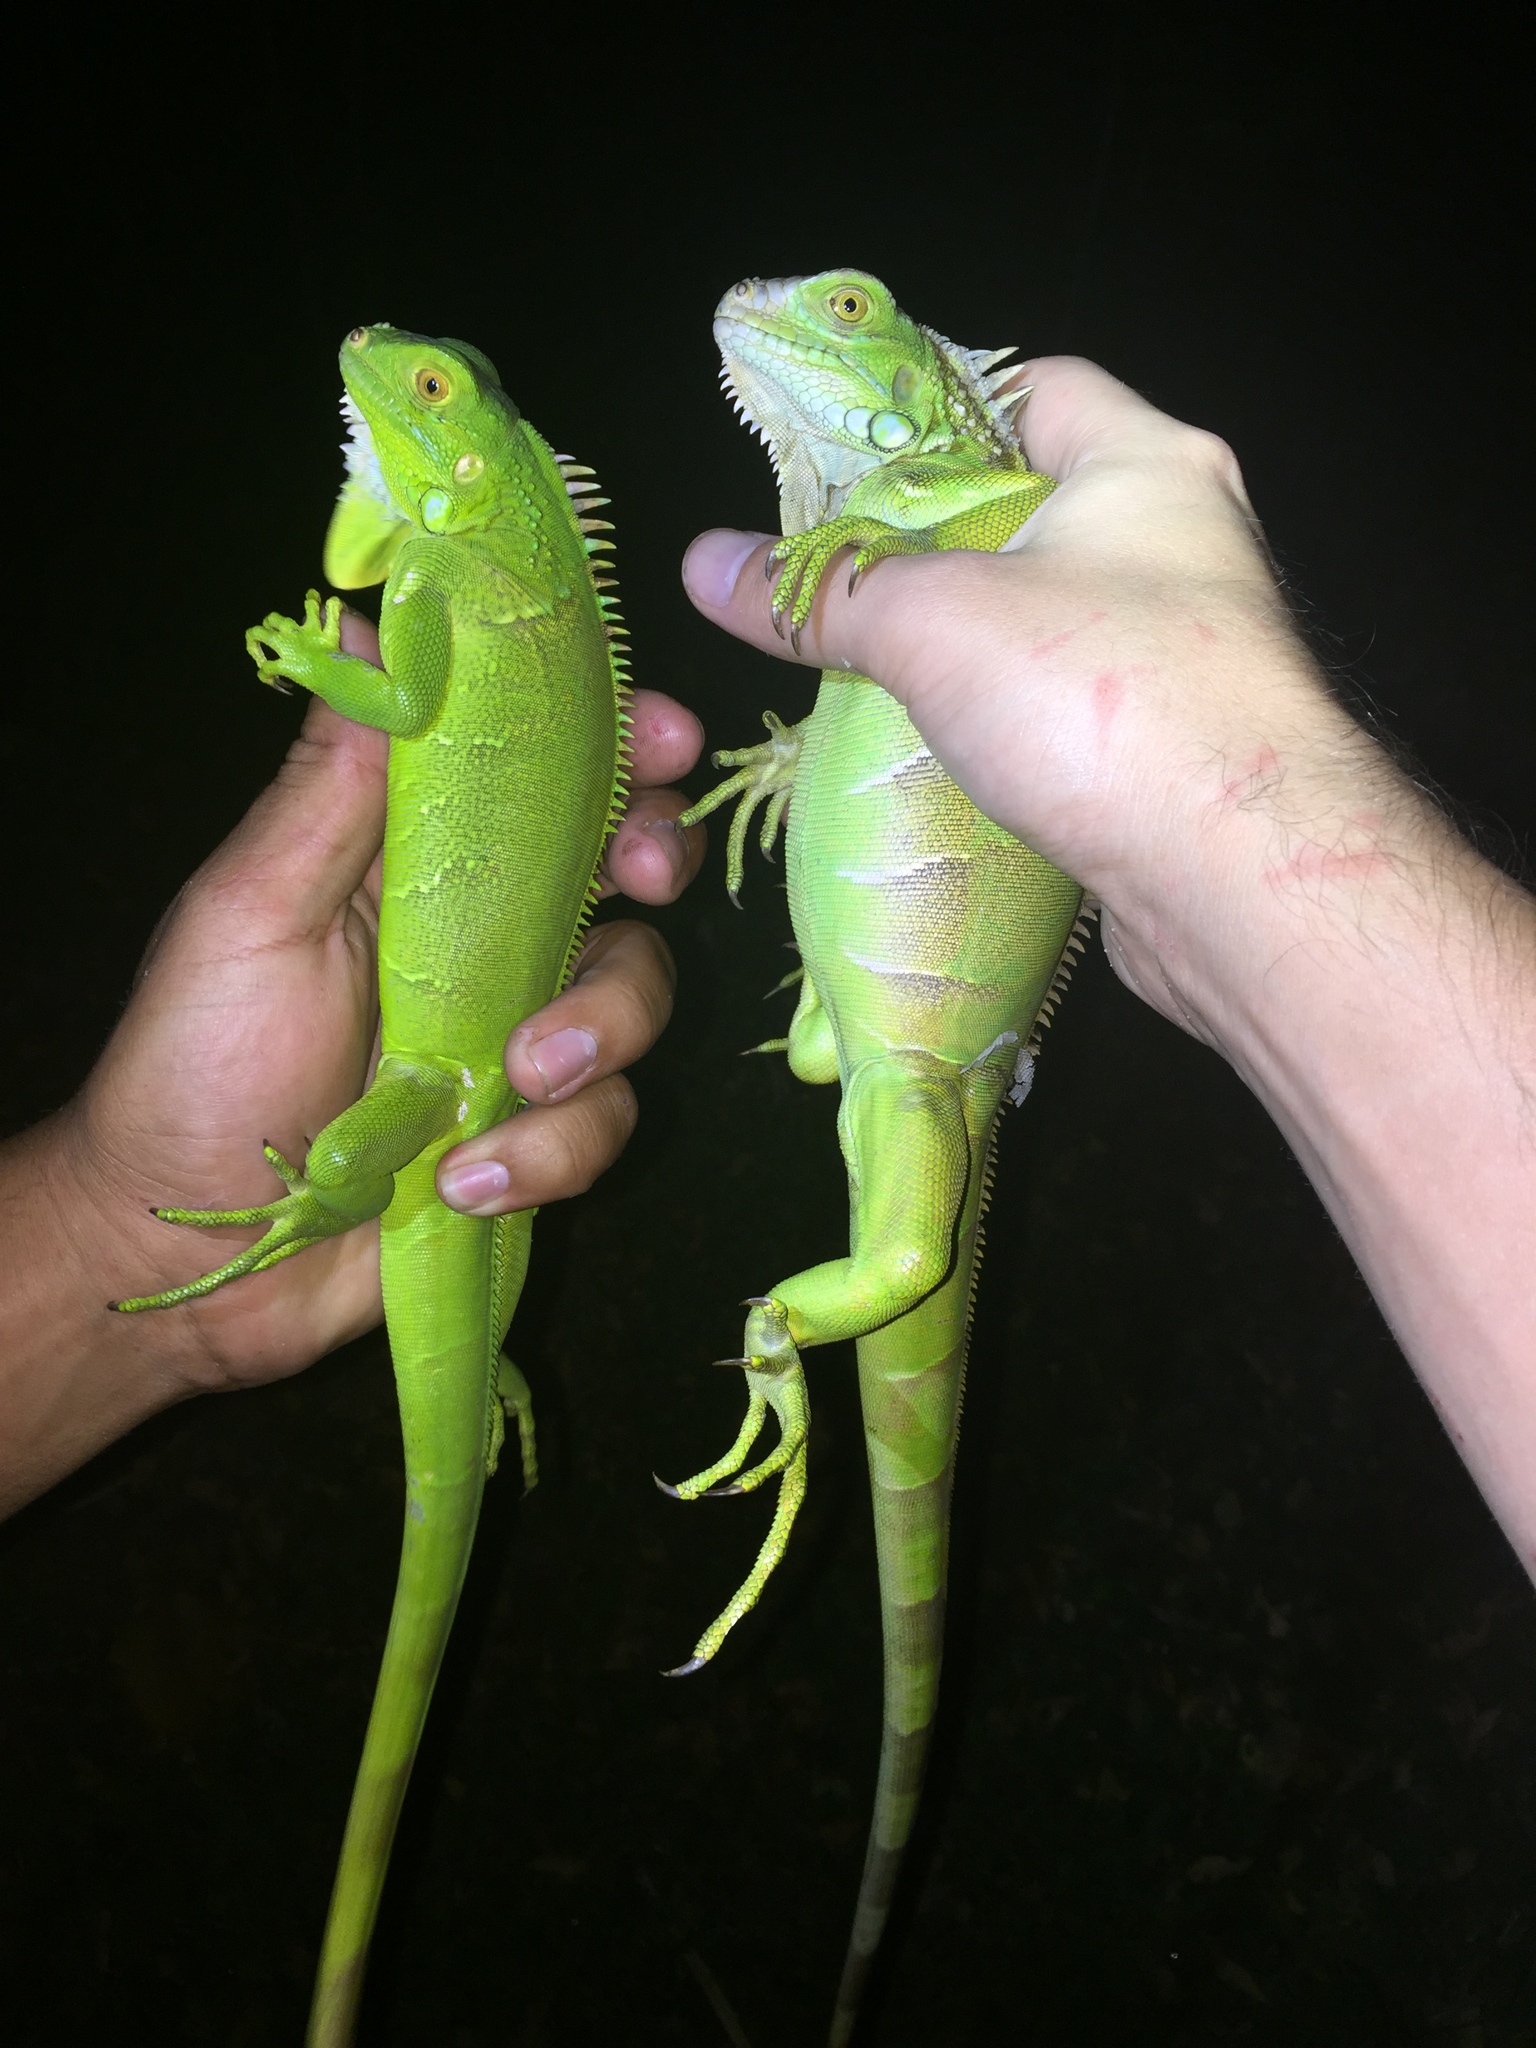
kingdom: Animalia
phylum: Chordata
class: Squamata
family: Iguanidae
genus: Iguana
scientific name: Iguana iguana
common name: Green iguana
